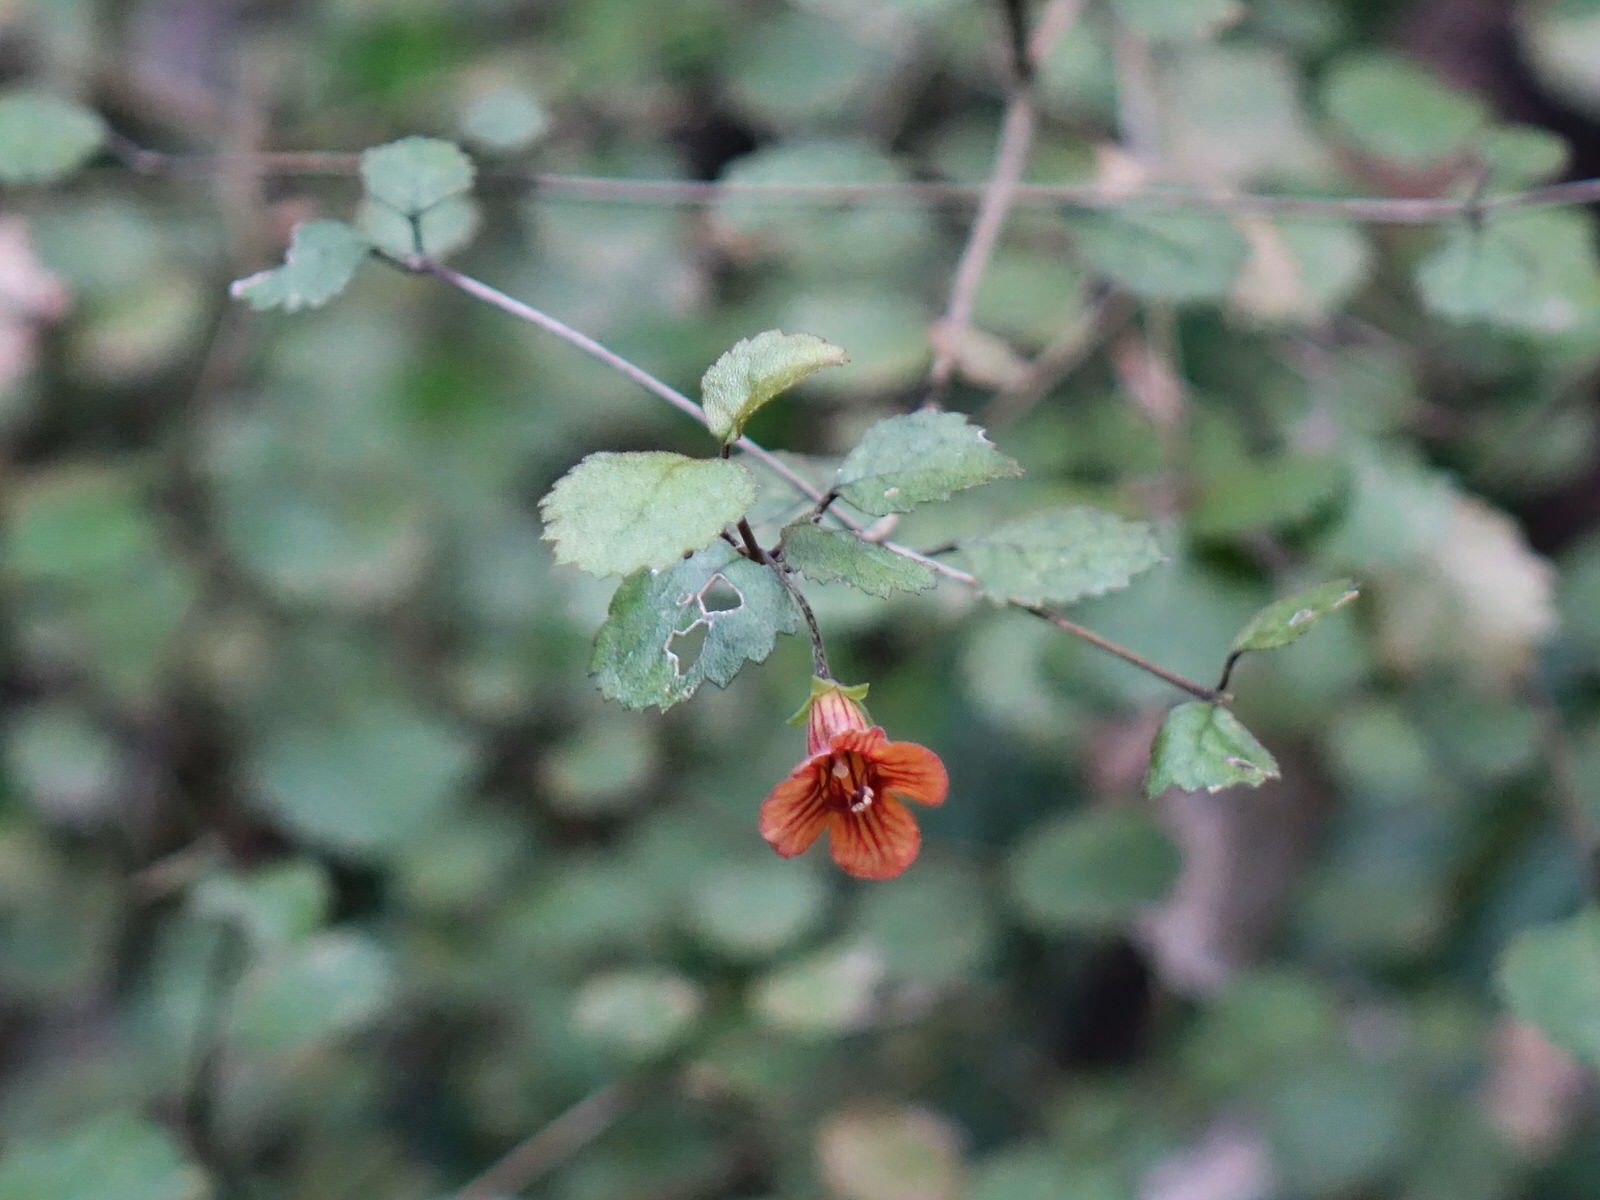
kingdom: Plantae
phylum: Tracheophyta
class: Magnoliopsida
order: Lamiales
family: Gesneriaceae
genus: Rhabdothamnus
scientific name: Rhabdothamnus solandri
